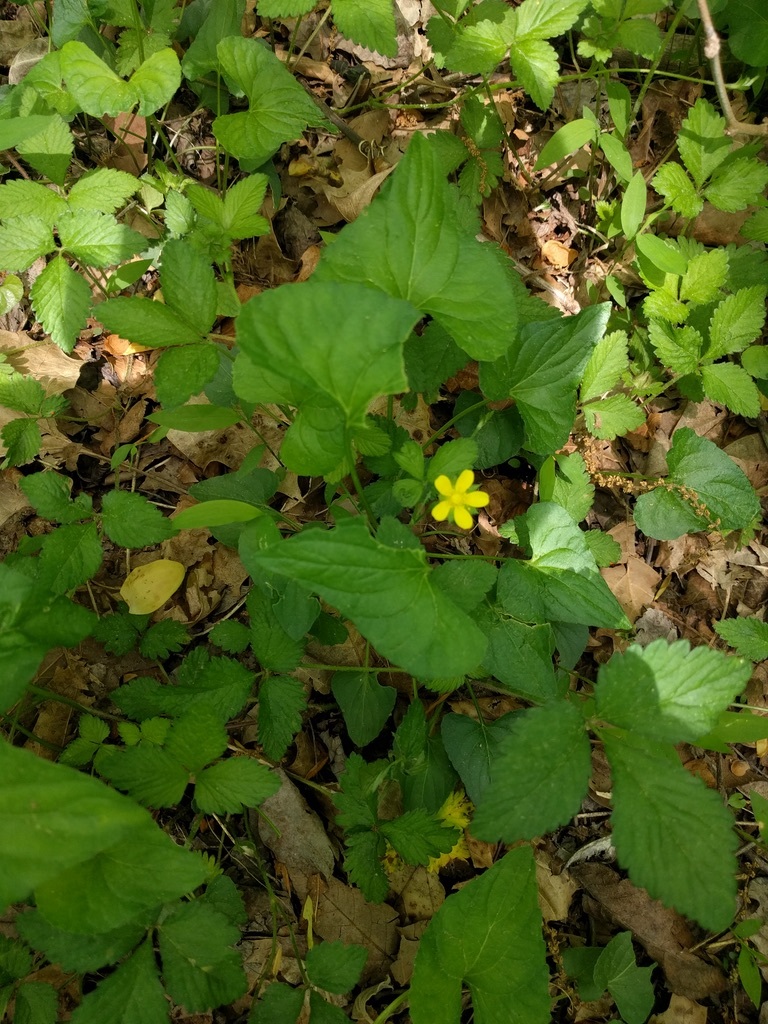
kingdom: Plantae
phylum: Tracheophyta
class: Magnoliopsida
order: Rosales
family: Rosaceae
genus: Potentilla
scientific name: Potentilla indica
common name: Yellow-flowered strawberry
